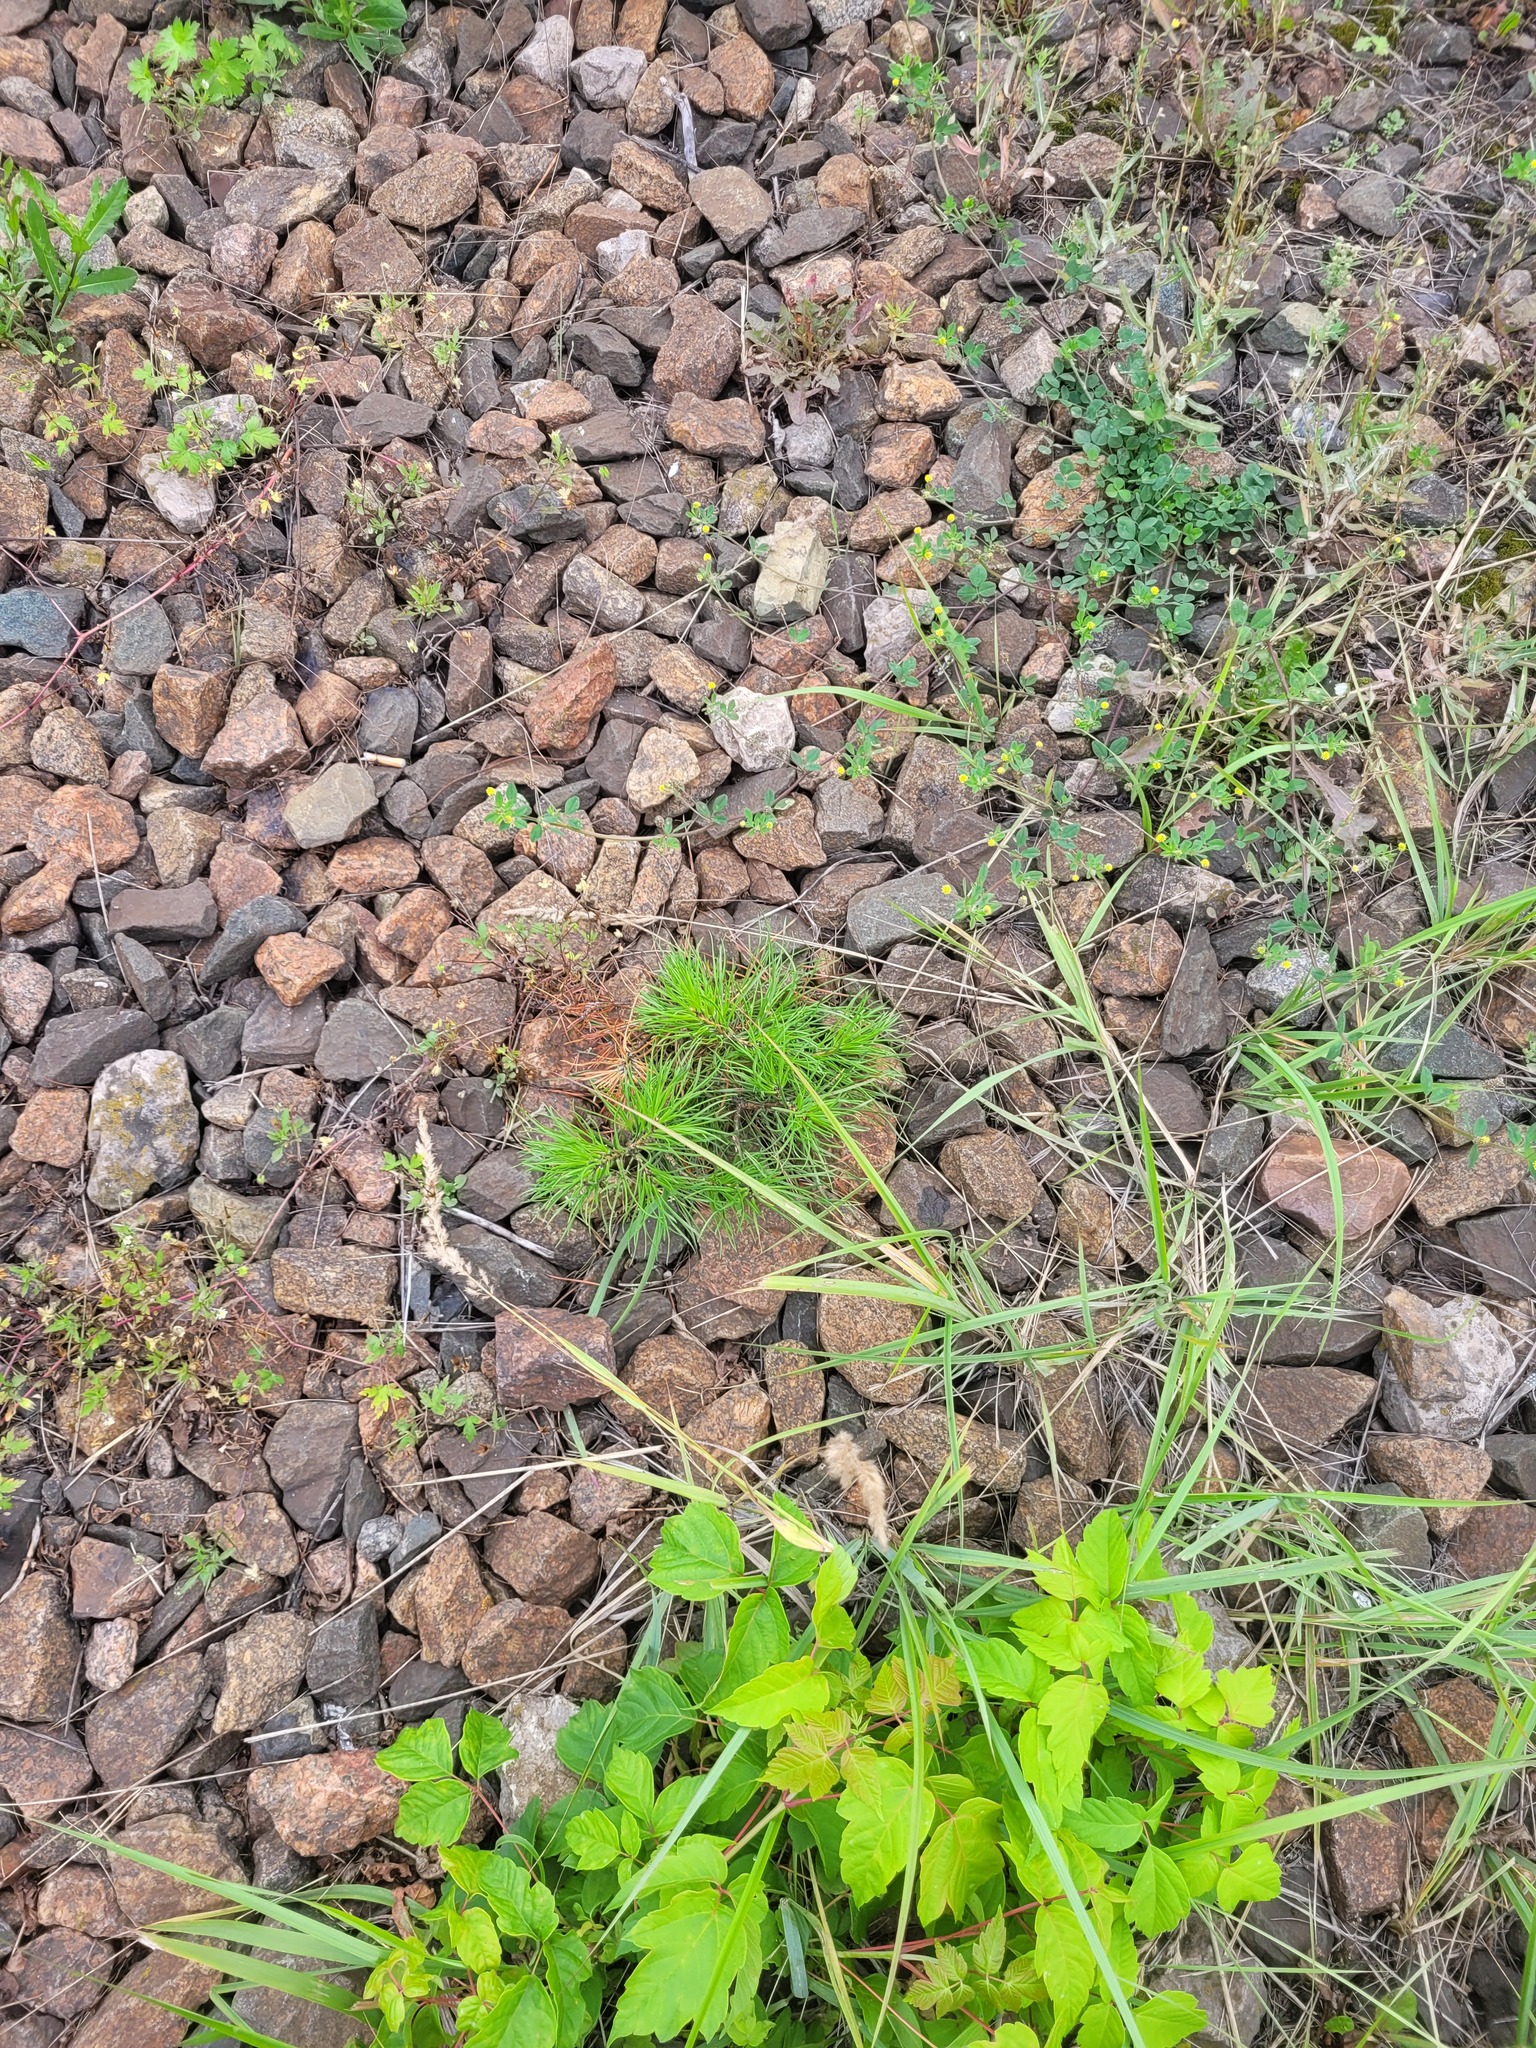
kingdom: Plantae
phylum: Tracheophyta
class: Pinopsida
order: Pinales
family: Pinaceae
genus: Pinus
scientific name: Pinus sylvestris
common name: Scots pine
